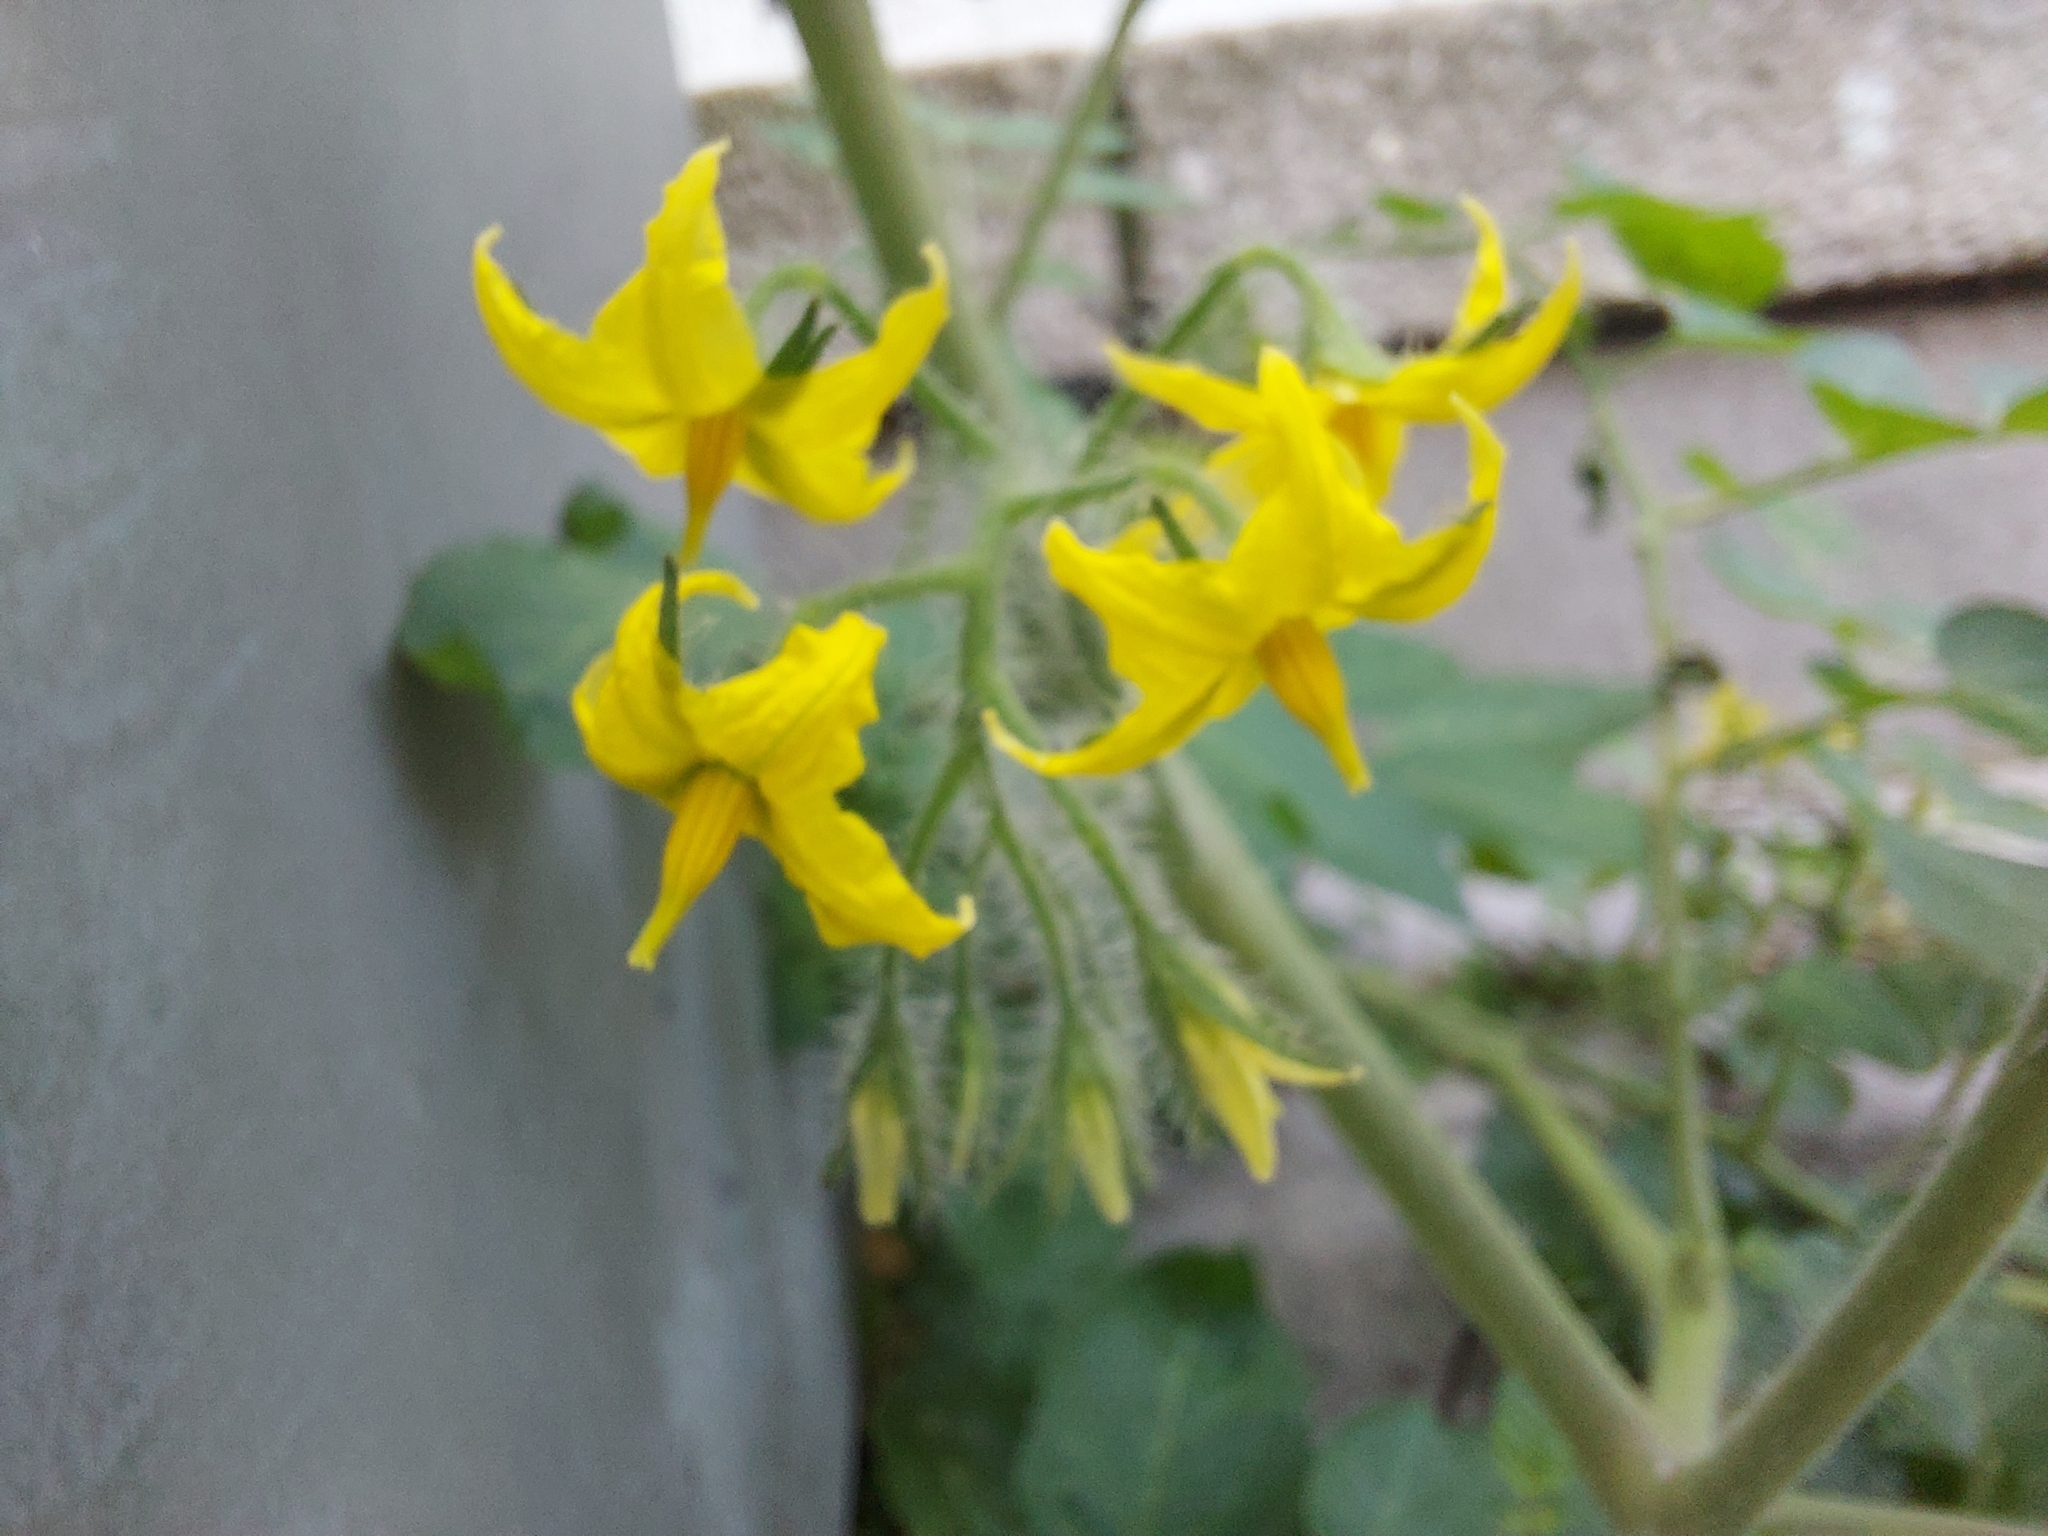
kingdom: Plantae
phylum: Tracheophyta
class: Magnoliopsida
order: Solanales
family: Solanaceae
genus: Solanum
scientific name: Solanum lycopersicum
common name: Garden tomato
